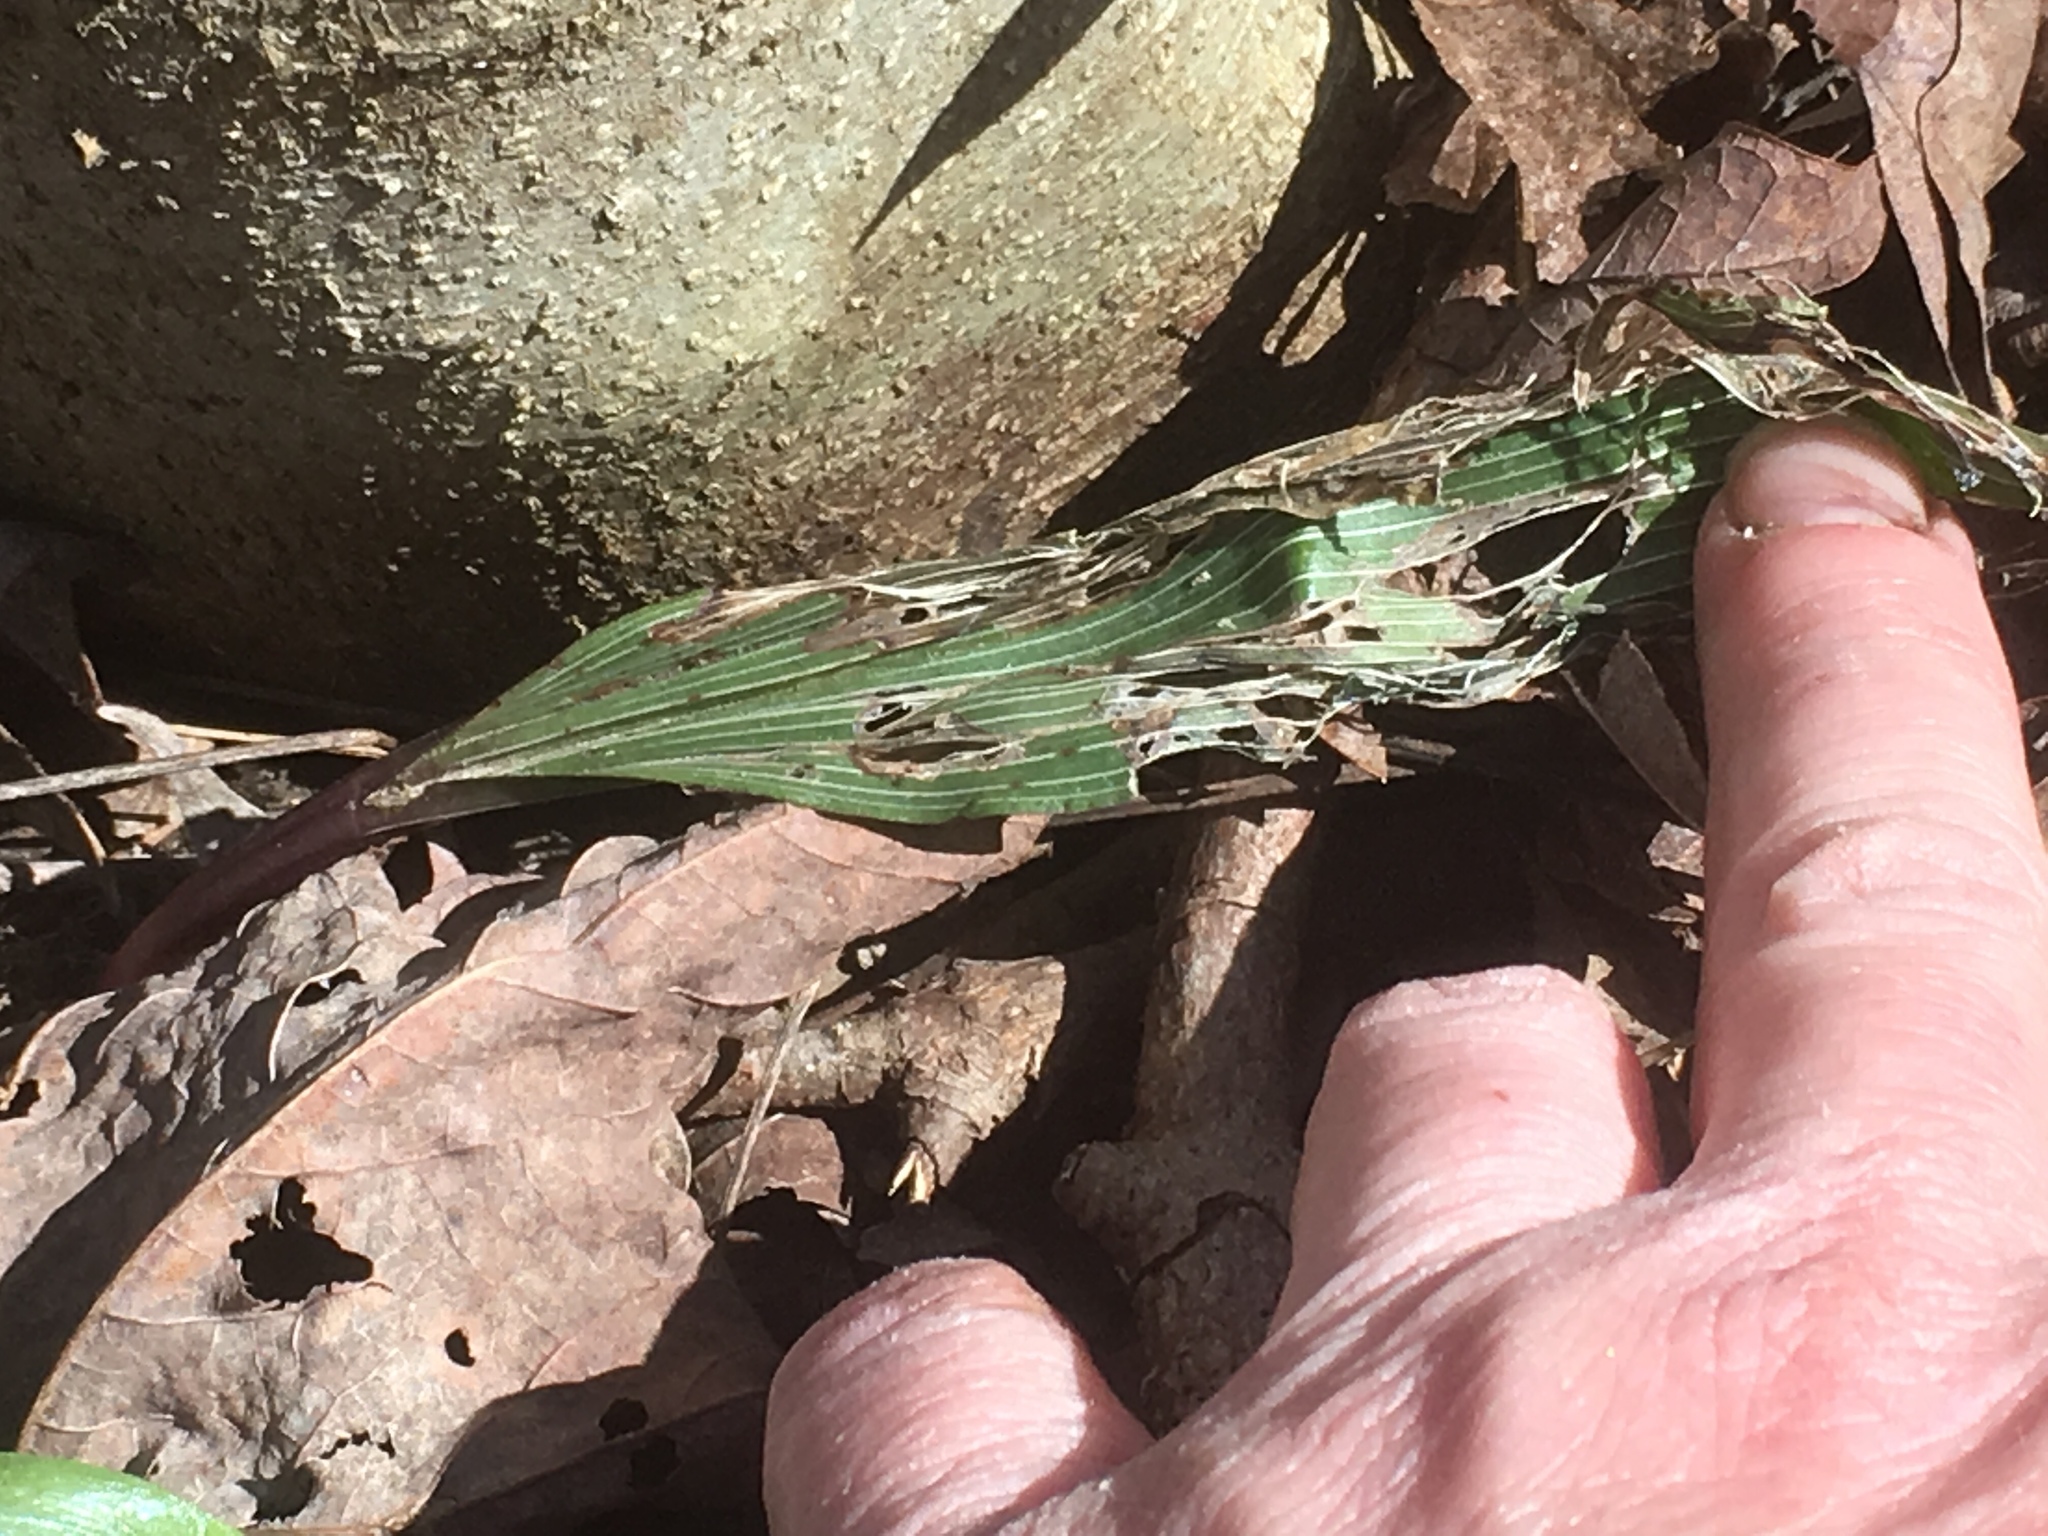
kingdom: Plantae
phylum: Tracheophyta
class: Liliopsida
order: Asparagales
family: Orchidaceae
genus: Aplectrum
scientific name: Aplectrum hyemale
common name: Adam-and-eve
